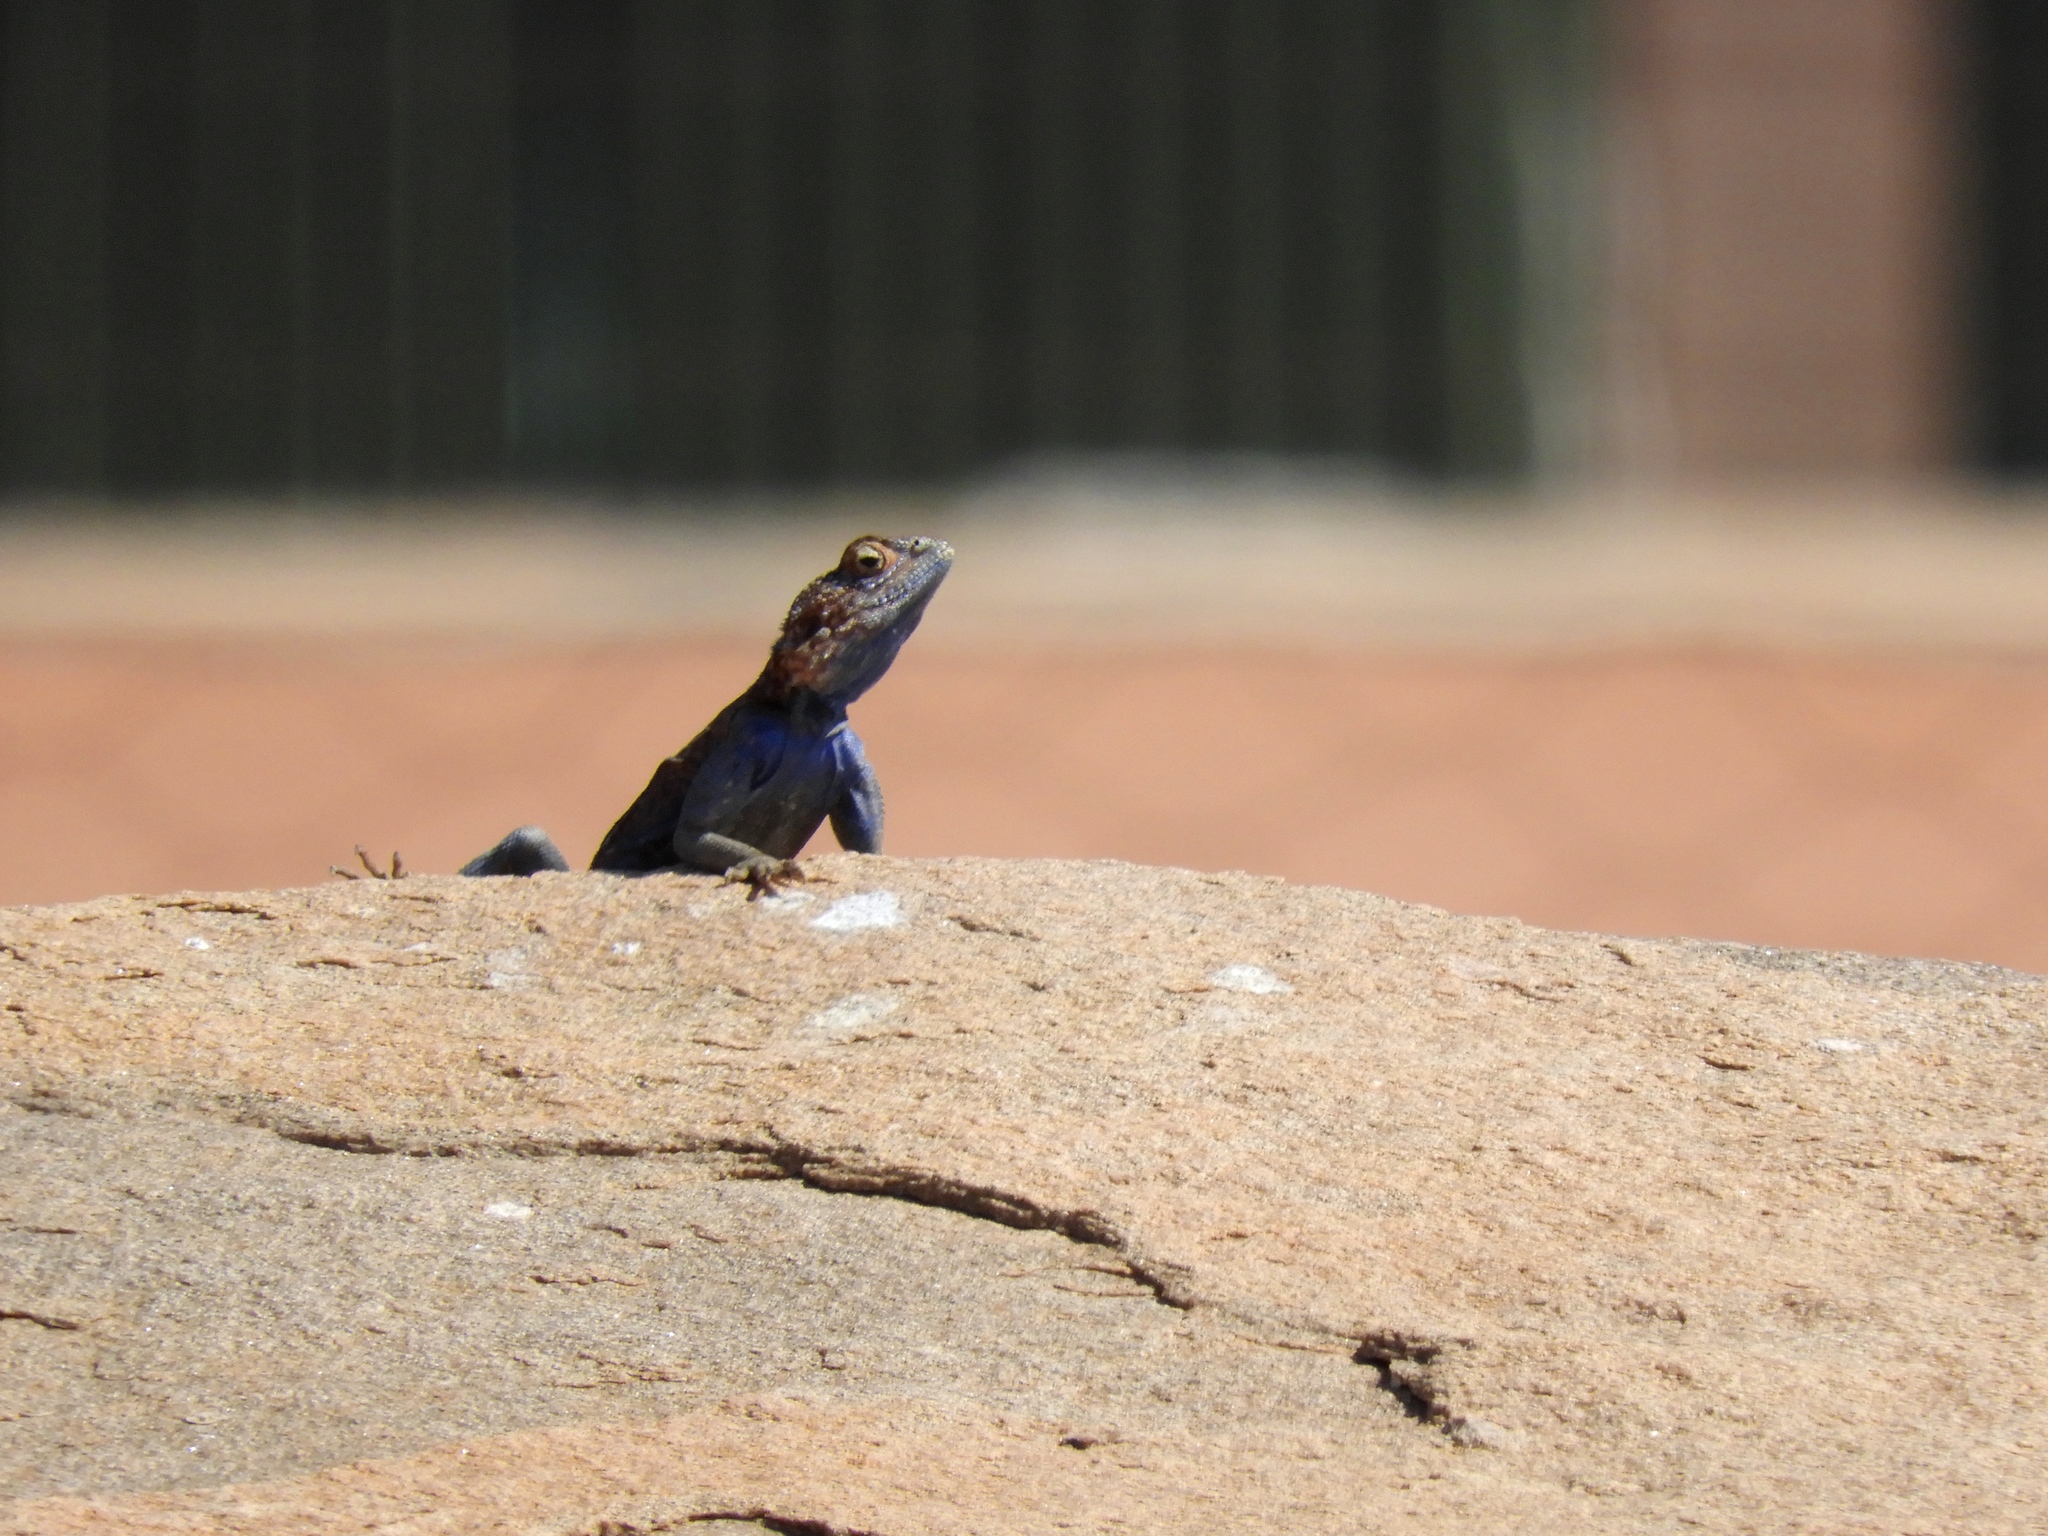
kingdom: Animalia
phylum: Chordata
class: Squamata
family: Agamidae
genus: Agama
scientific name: Agama atra
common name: Southern african rock agama
